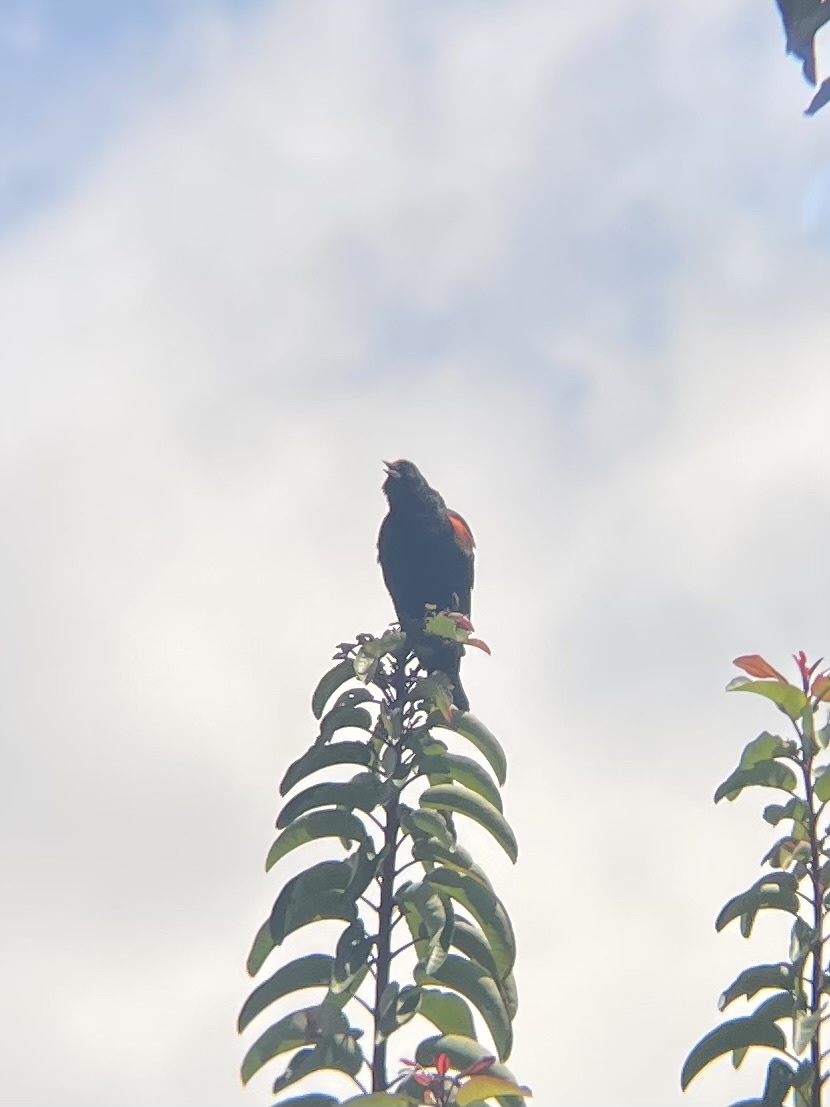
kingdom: Animalia
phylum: Chordata
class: Aves
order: Passeriformes
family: Icteridae
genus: Agelaius
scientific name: Agelaius phoeniceus
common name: Red-winged blackbird
